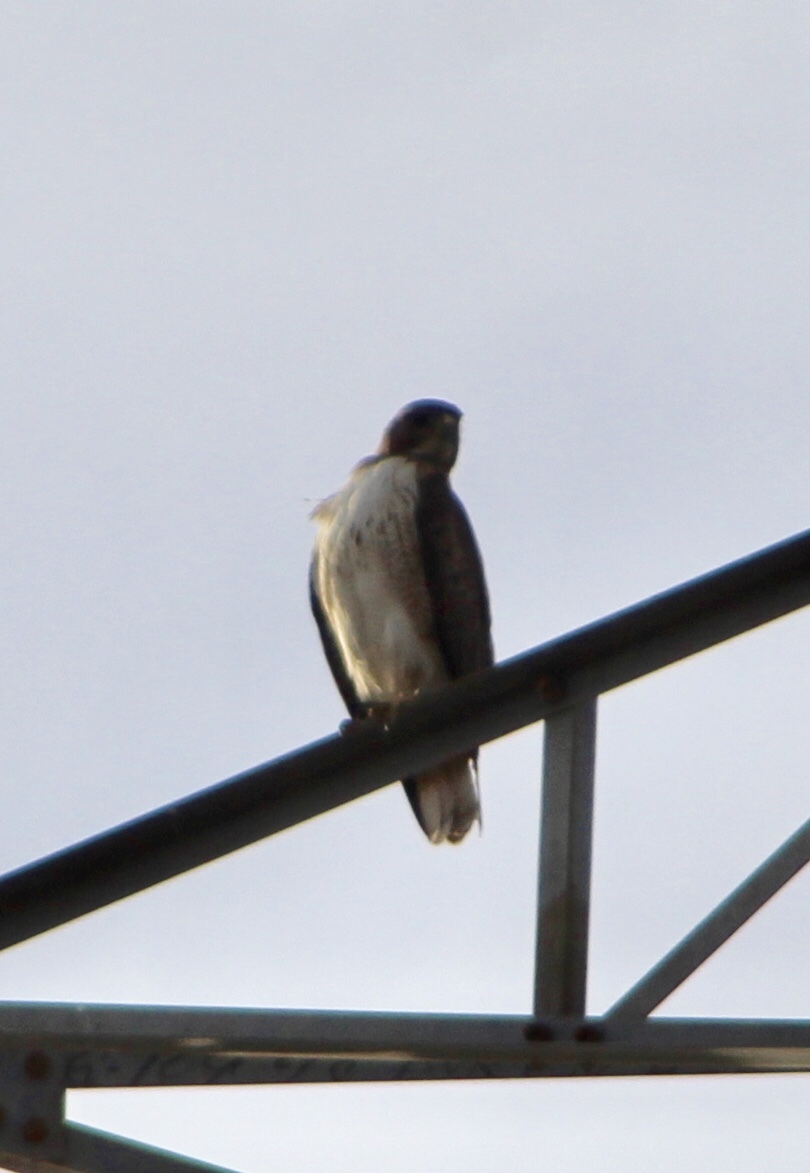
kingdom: Animalia
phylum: Chordata
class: Aves
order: Accipitriformes
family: Accipitridae
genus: Buteo
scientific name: Buteo jamaicensis
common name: Red-tailed hawk
